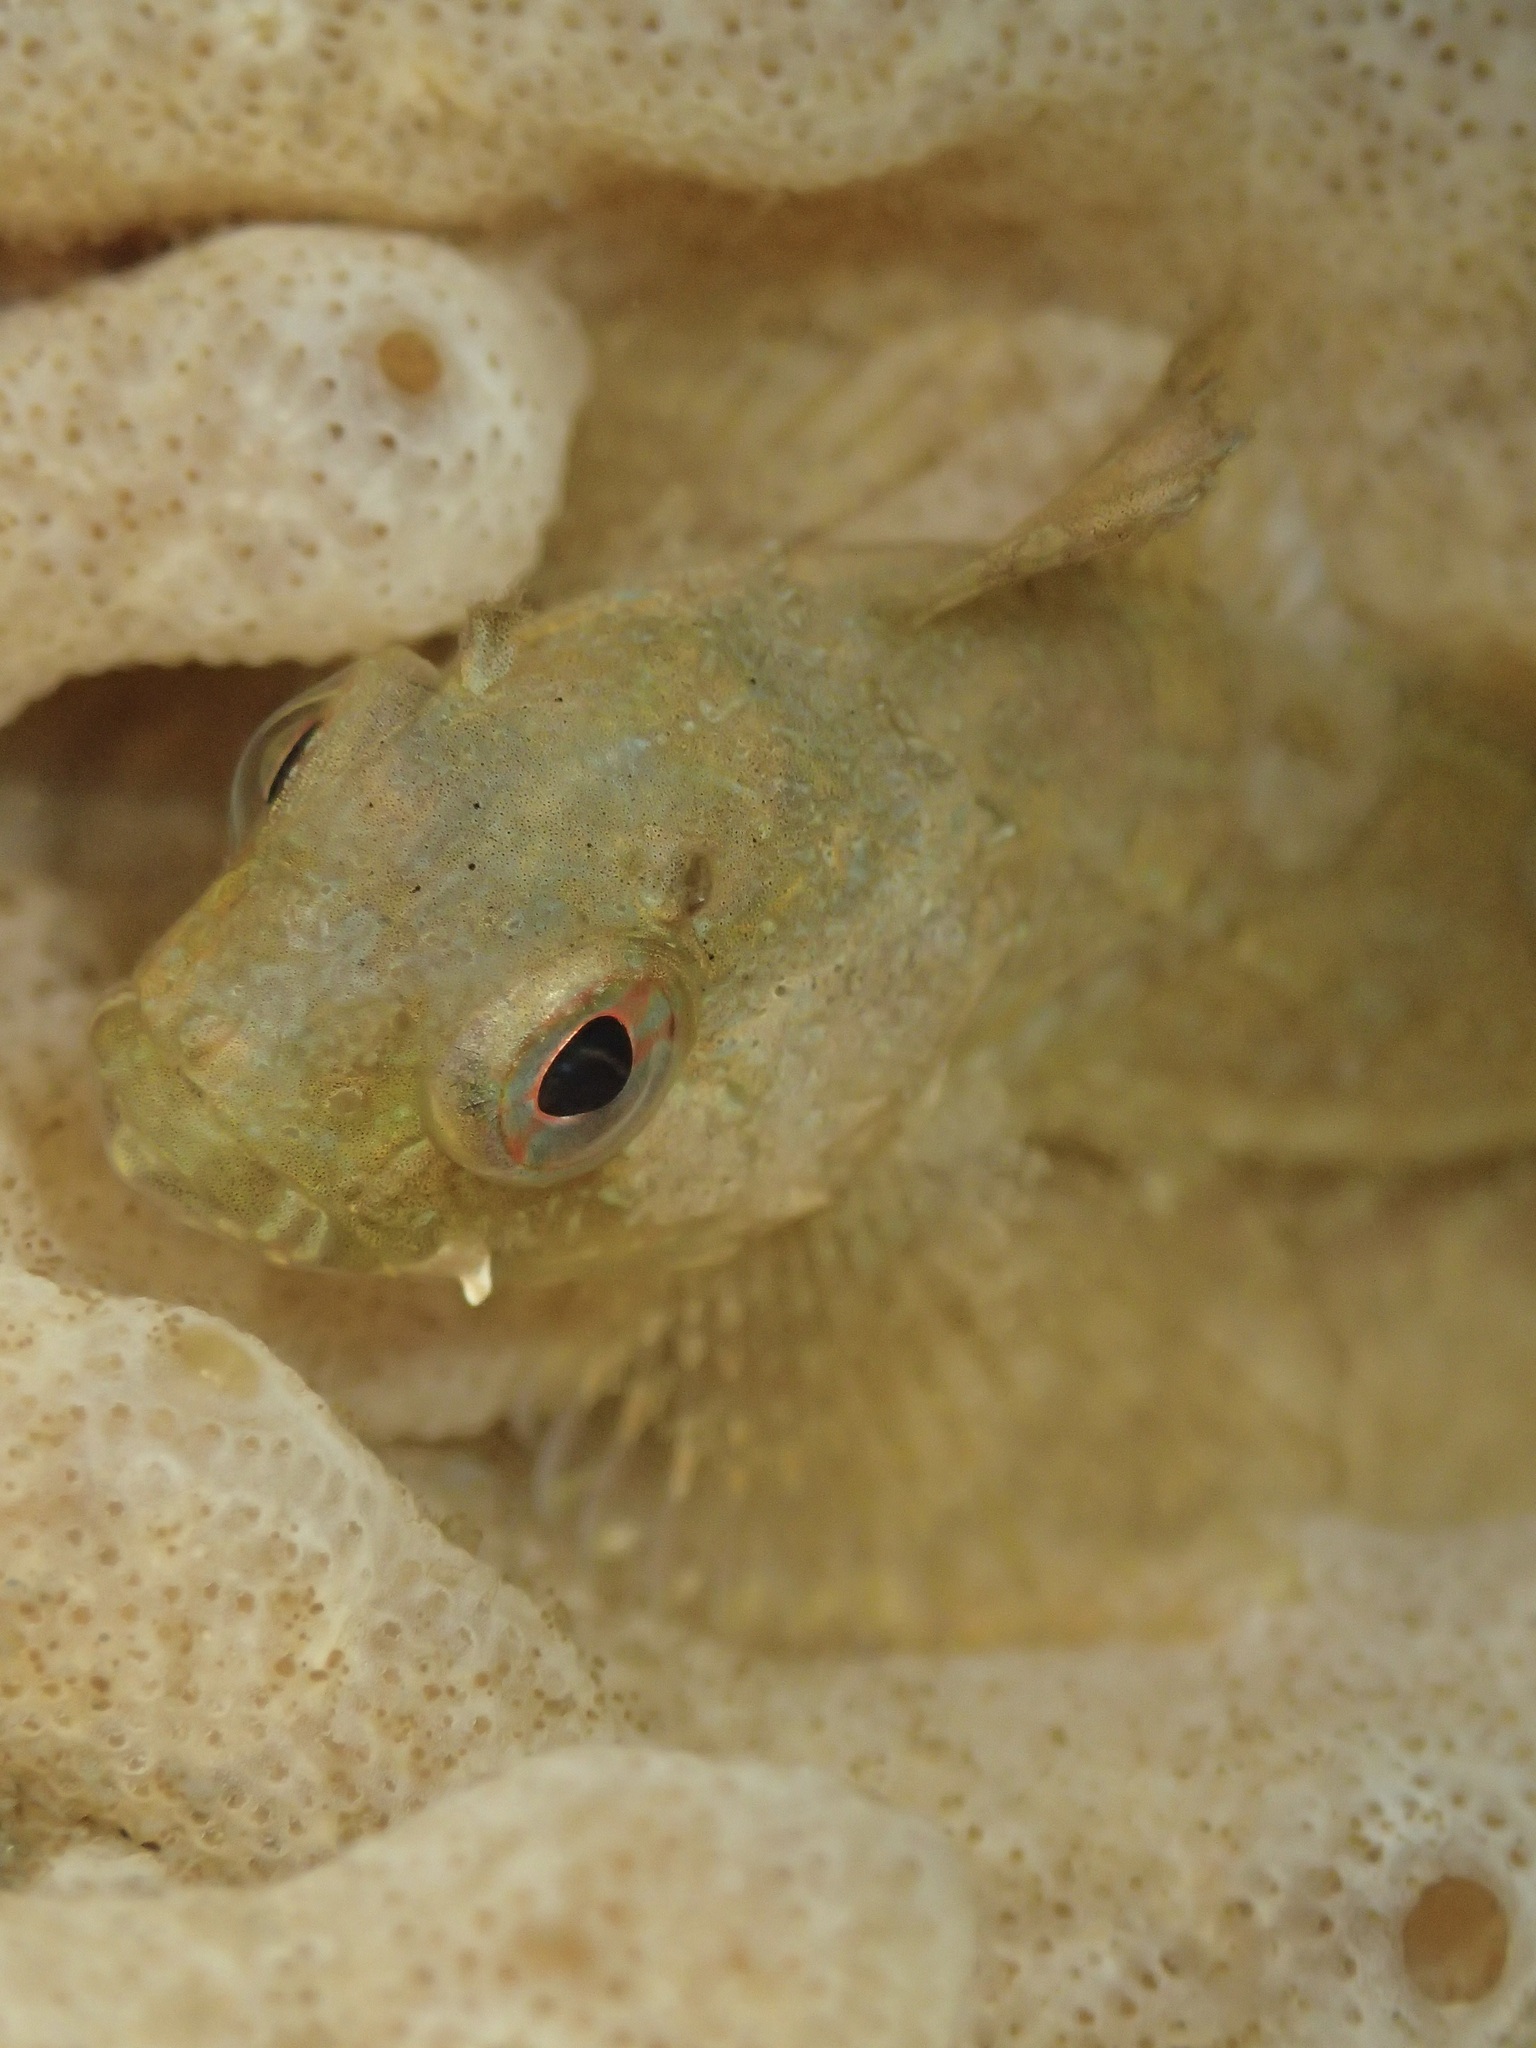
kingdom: Animalia
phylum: Chordata
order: Scorpaeniformes
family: Cottidae
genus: Scorpaenichthys
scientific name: Scorpaenichthys marmoratus
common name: Cabezon
